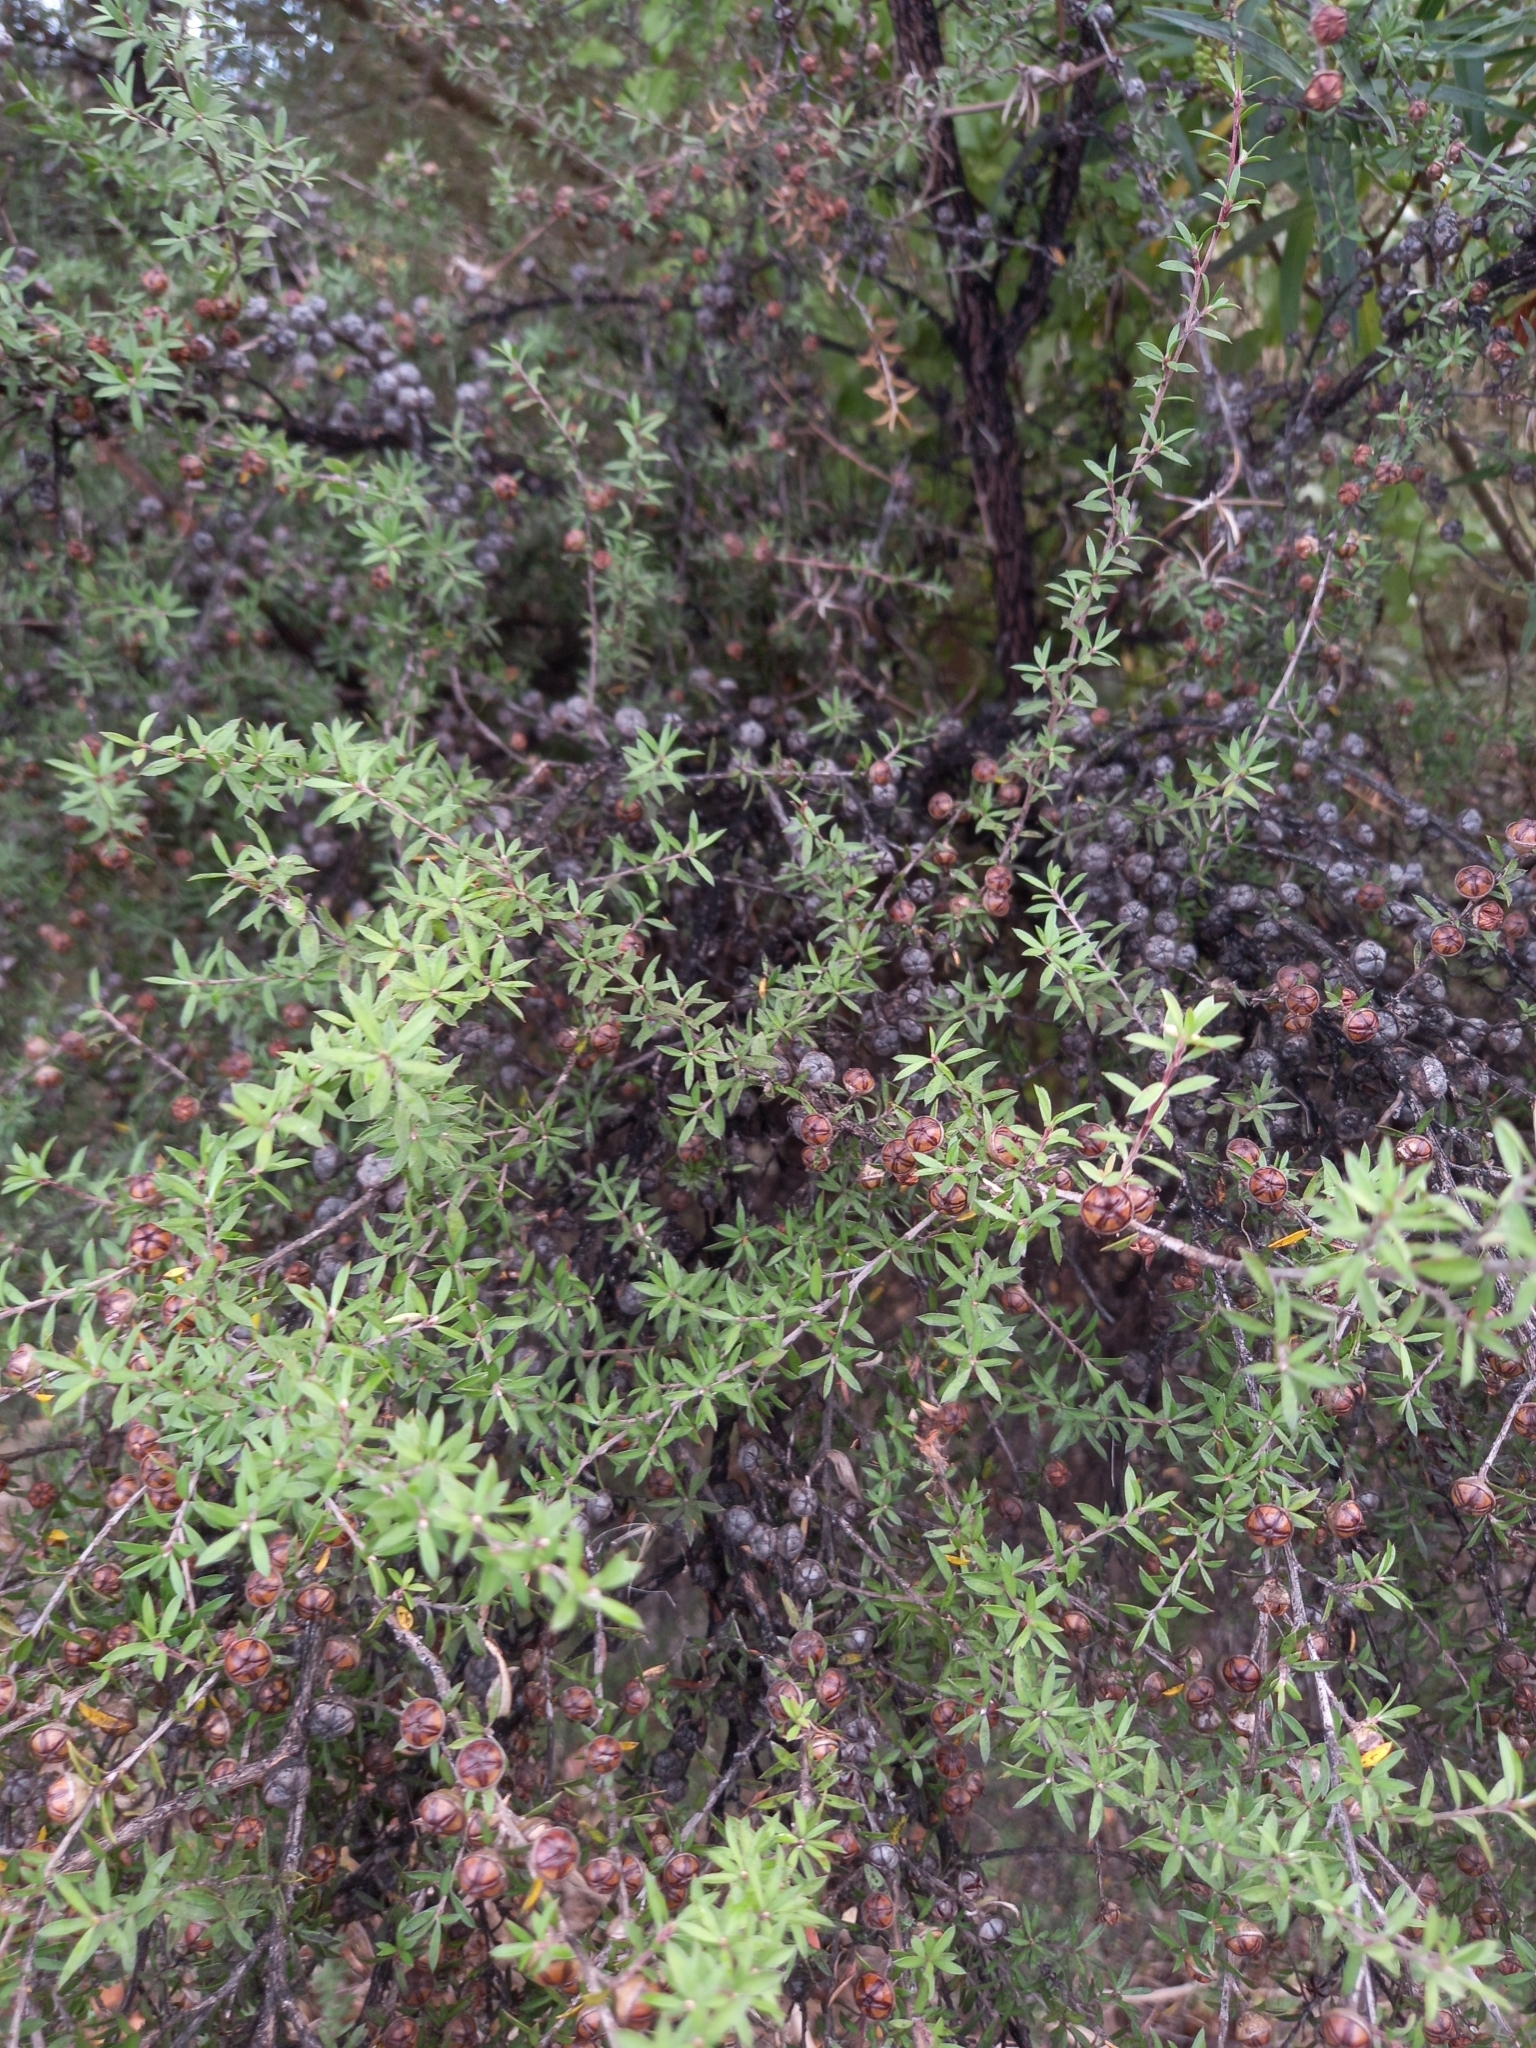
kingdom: Plantae
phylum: Tracheophyta
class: Magnoliopsida
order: Myrtales
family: Myrtaceae
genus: Leptospermum
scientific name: Leptospermum scoparium
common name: Broom tea-tree
